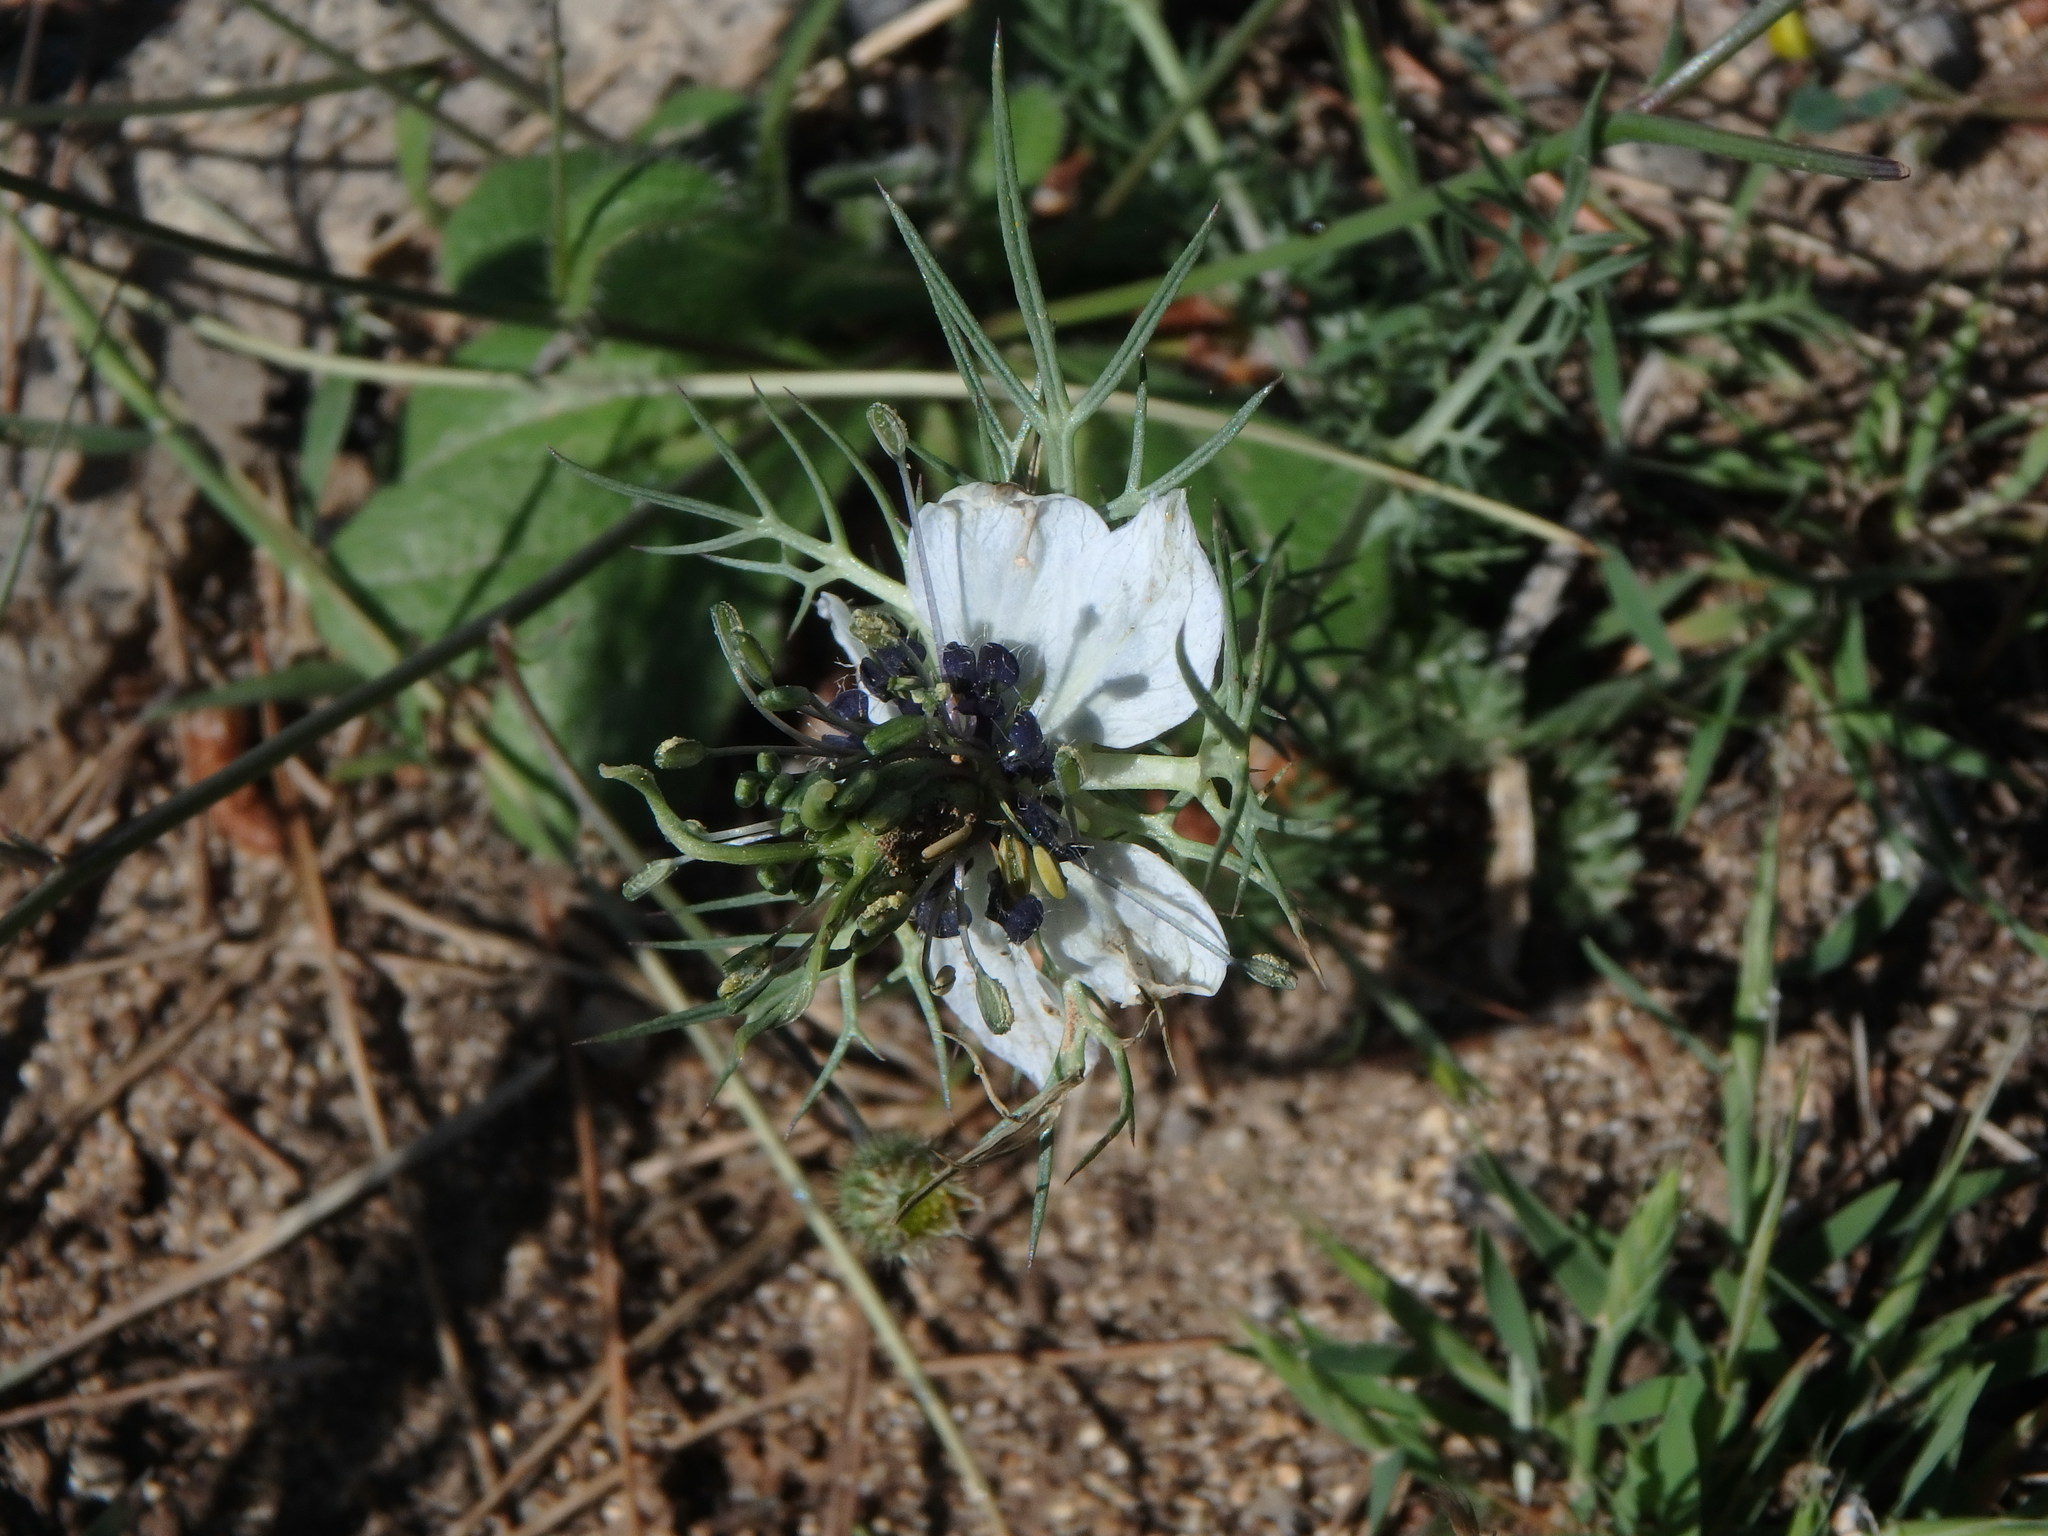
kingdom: Plantae
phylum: Tracheophyta
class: Magnoliopsida
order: Ranunculales
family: Ranunculaceae
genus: Nigella
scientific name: Nigella damascena
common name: Love-in-a-mist
